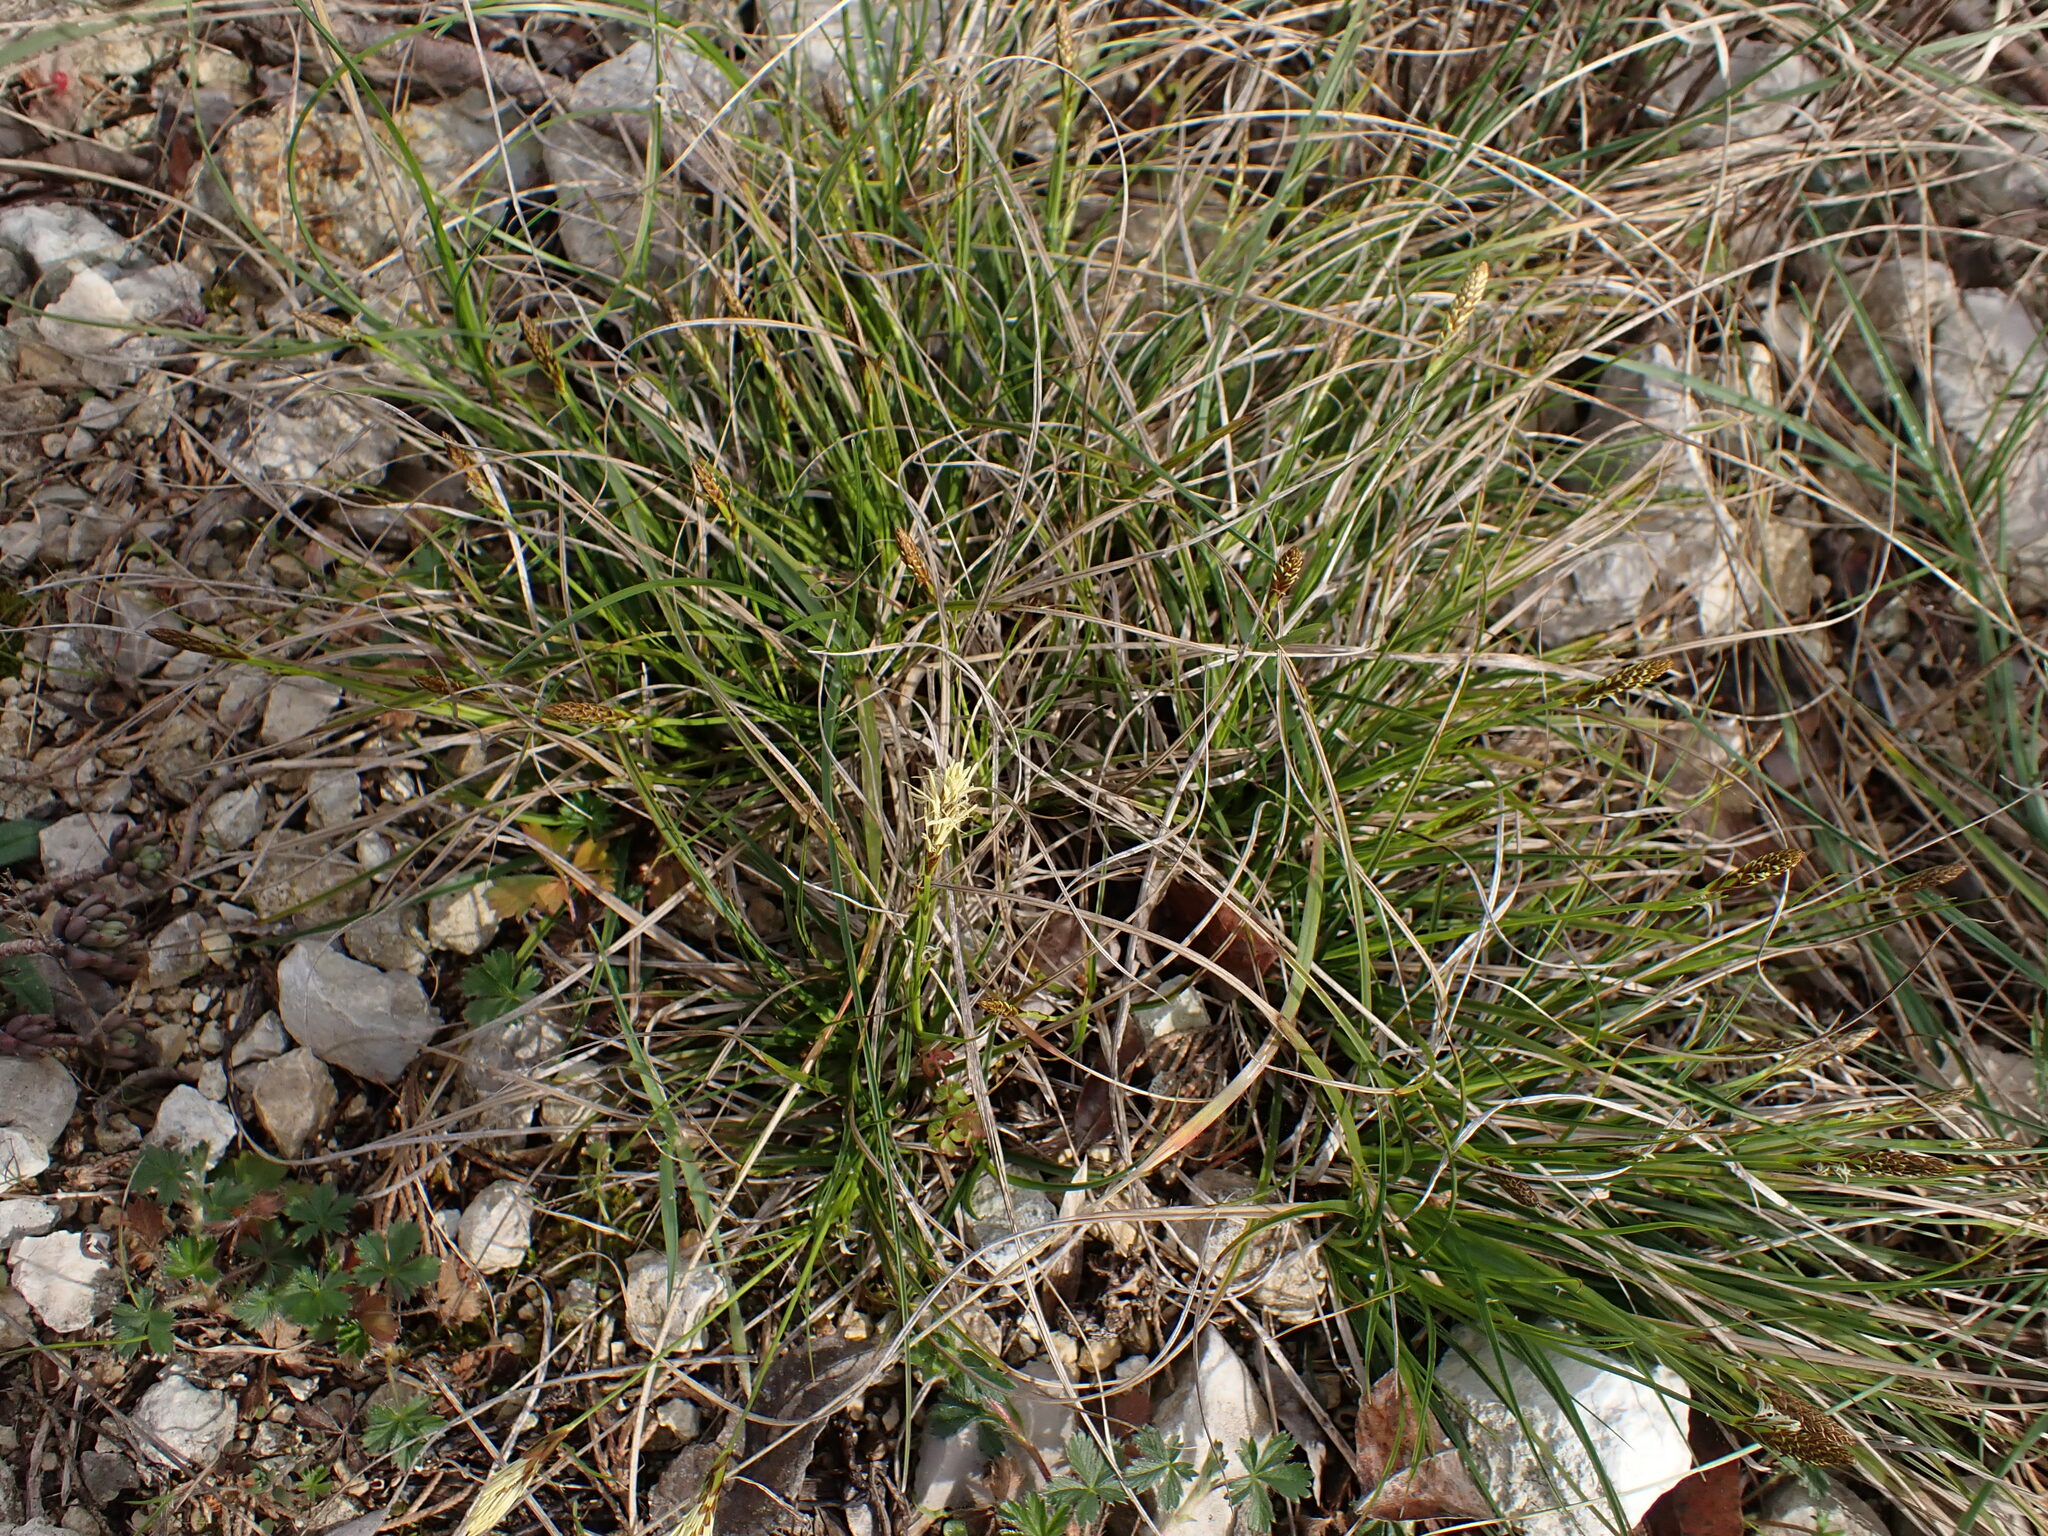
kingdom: Plantae
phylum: Tracheophyta
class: Liliopsida
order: Poales
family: Cyperaceae
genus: Carex
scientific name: Carex halleriana
